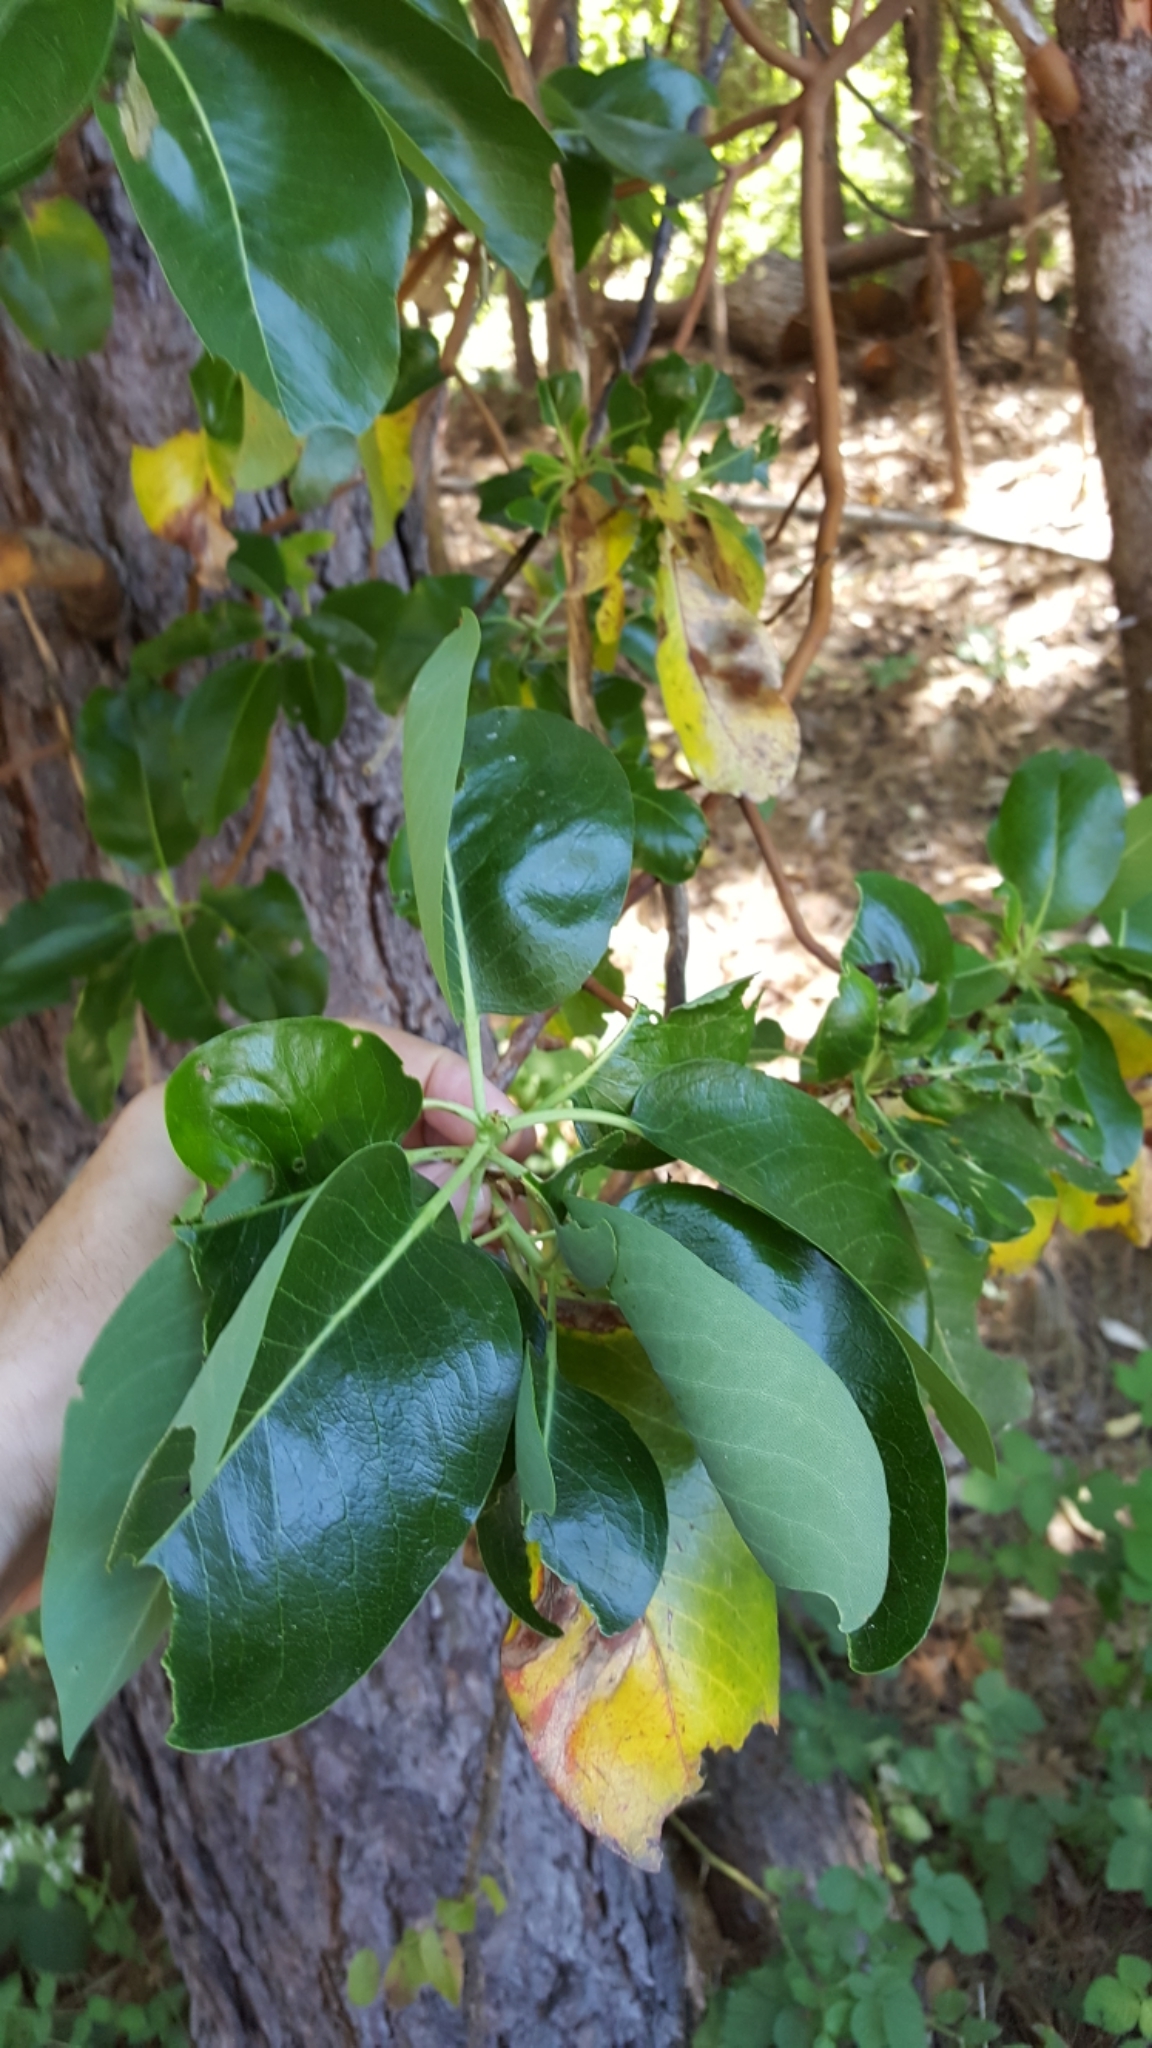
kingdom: Plantae
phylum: Tracheophyta
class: Magnoliopsida
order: Ericales
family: Ericaceae
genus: Arbutus
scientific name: Arbutus menziesii
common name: Pacific madrone
